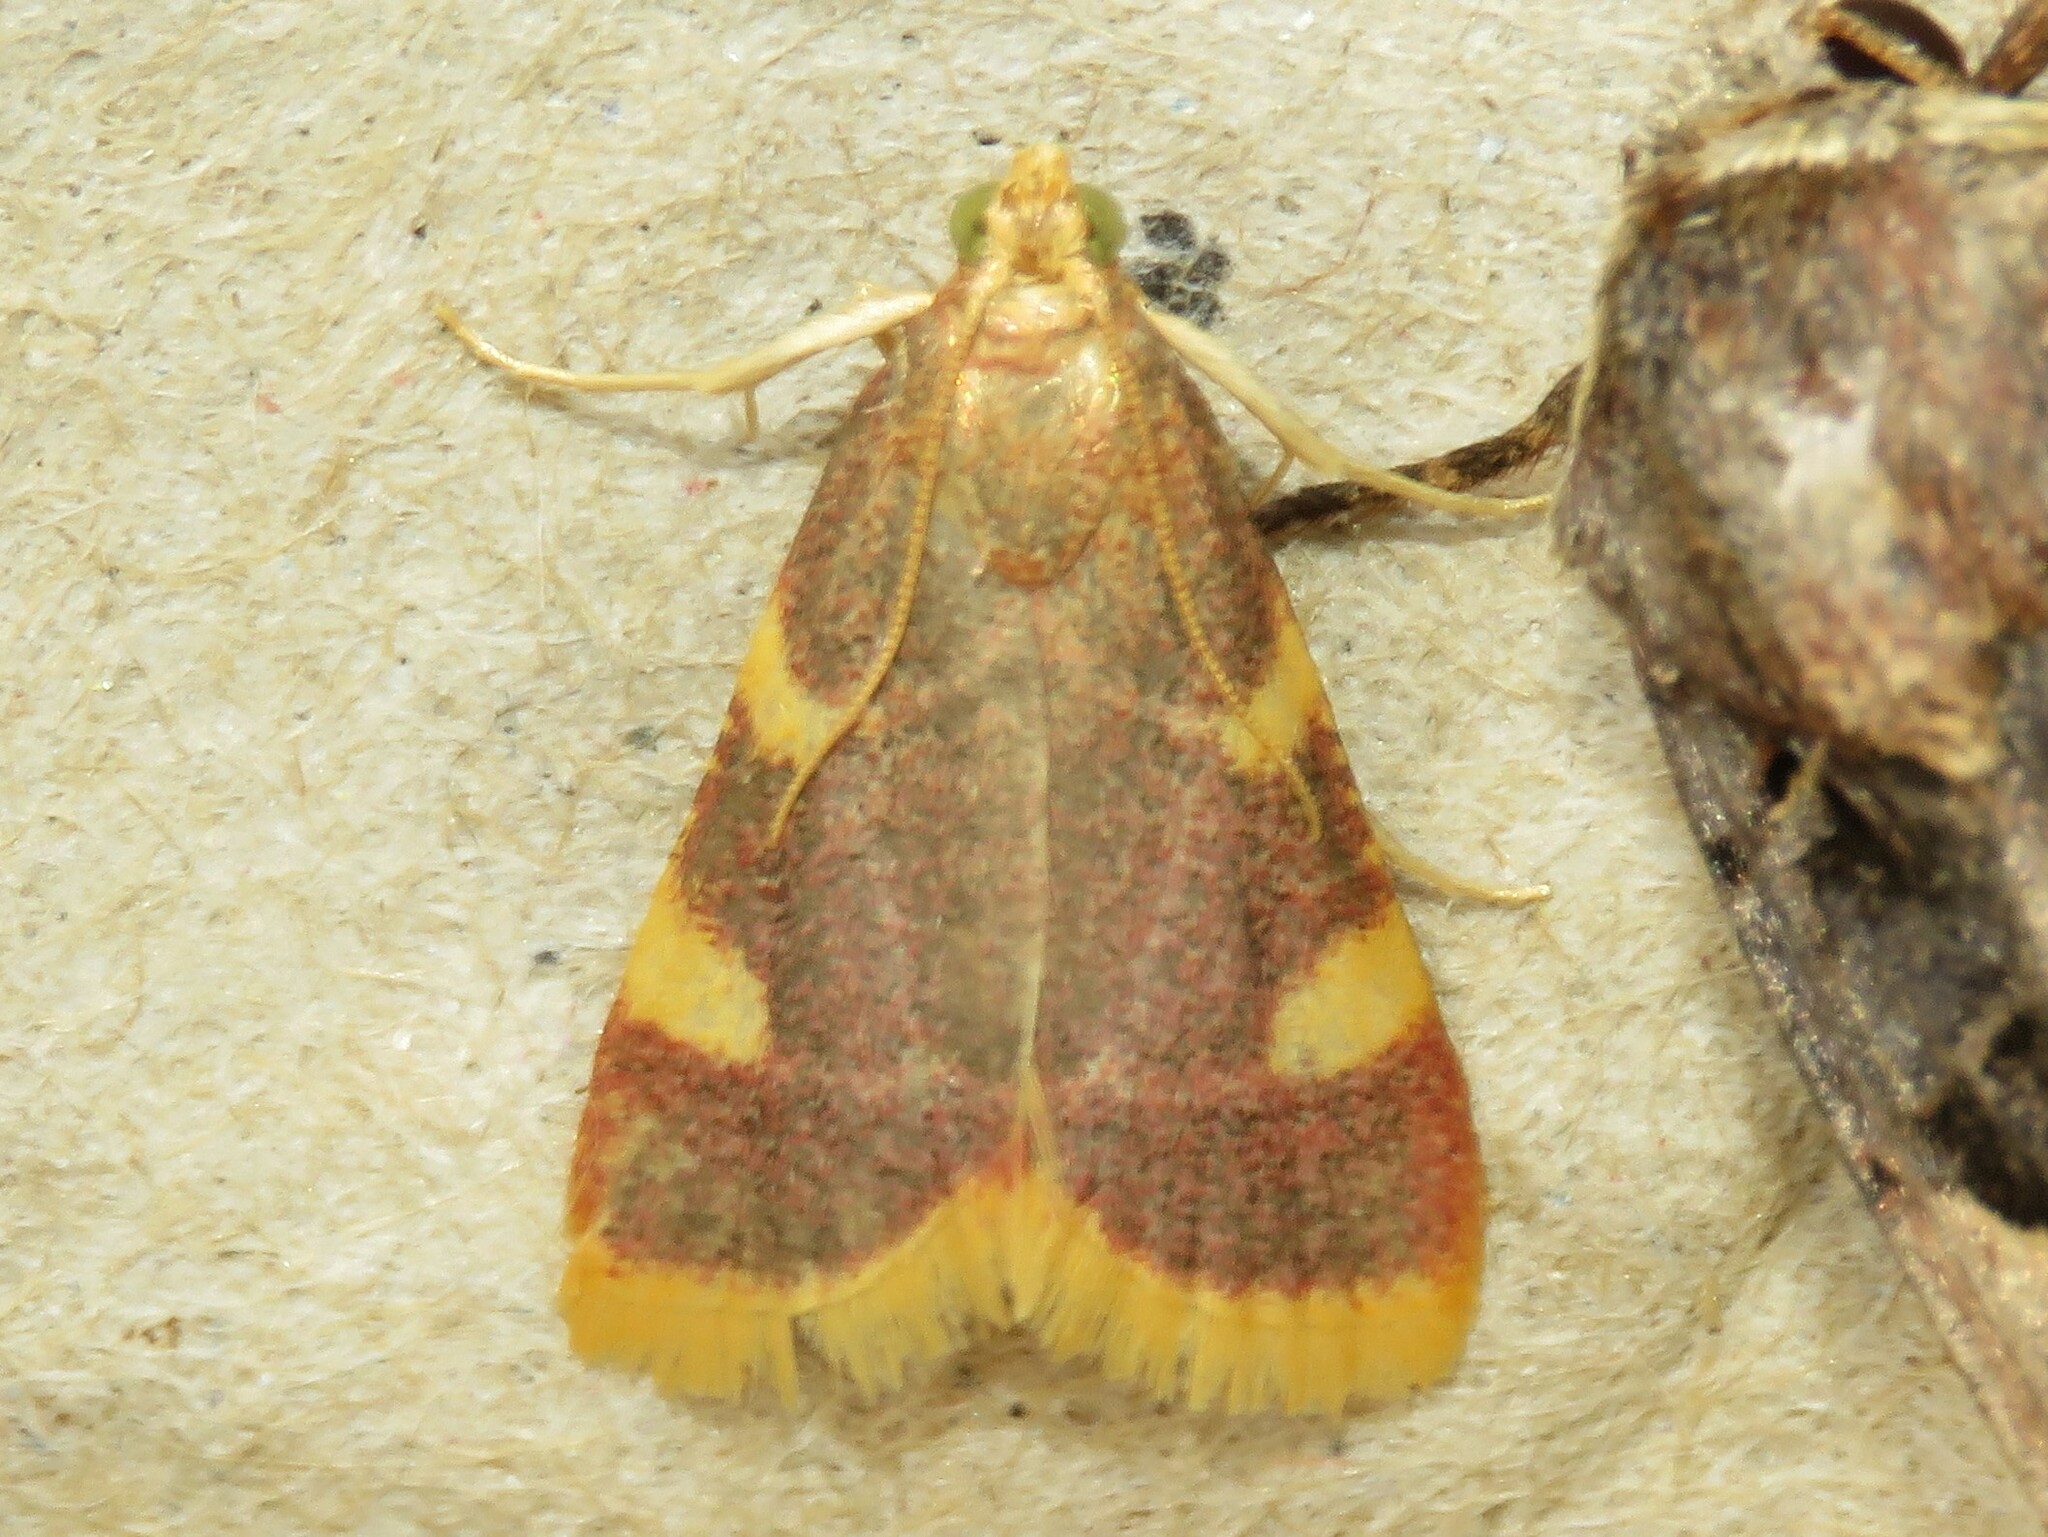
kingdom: Animalia
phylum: Arthropoda
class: Insecta
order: Lepidoptera
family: Pyralidae
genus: Hypsopygia
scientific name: Hypsopygia costalis
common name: Gold triangle
